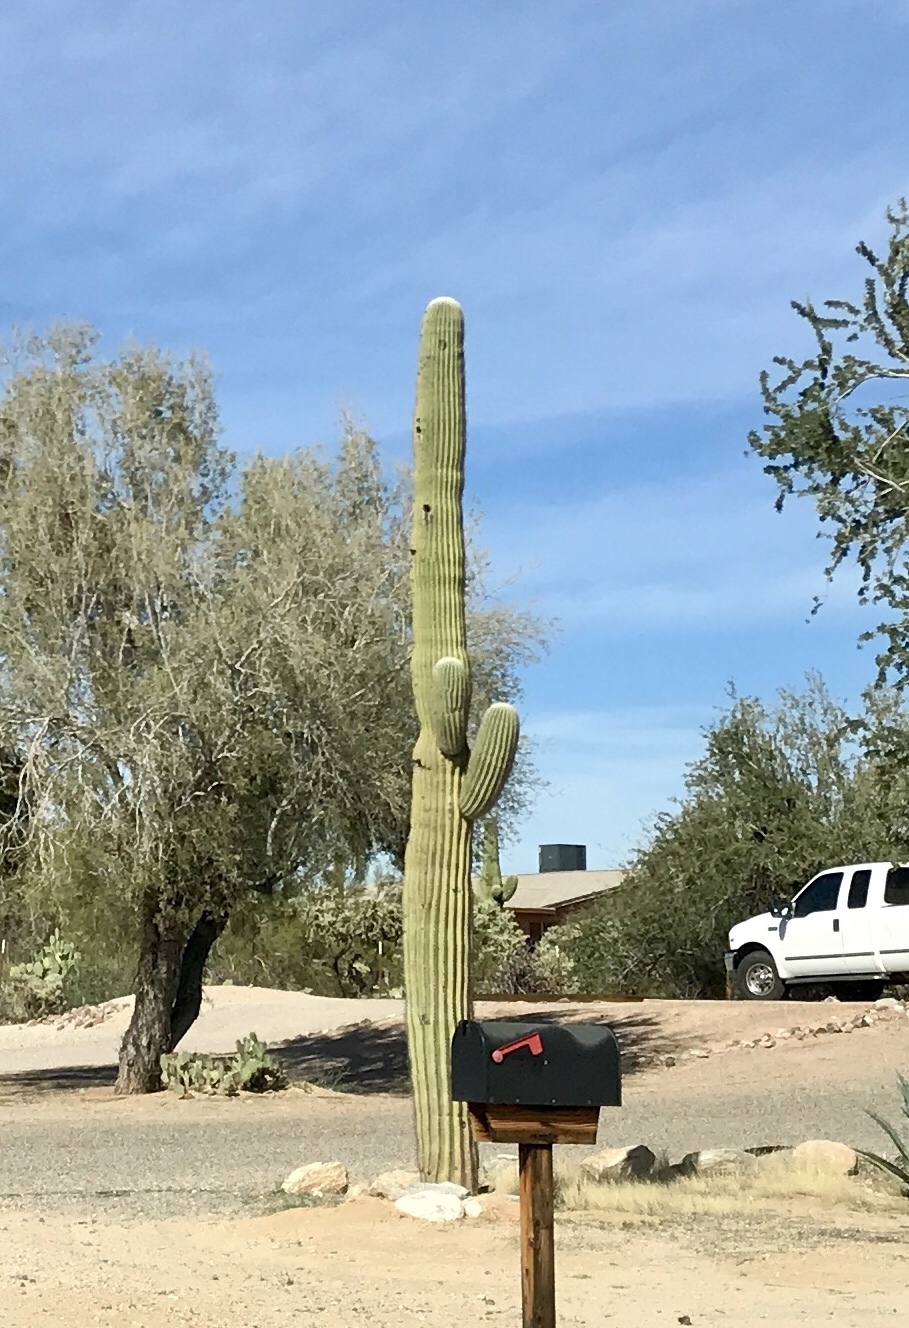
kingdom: Plantae
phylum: Tracheophyta
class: Magnoliopsida
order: Caryophyllales
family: Cactaceae
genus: Carnegiea
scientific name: Carnegiea gigantea
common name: Saguaro
